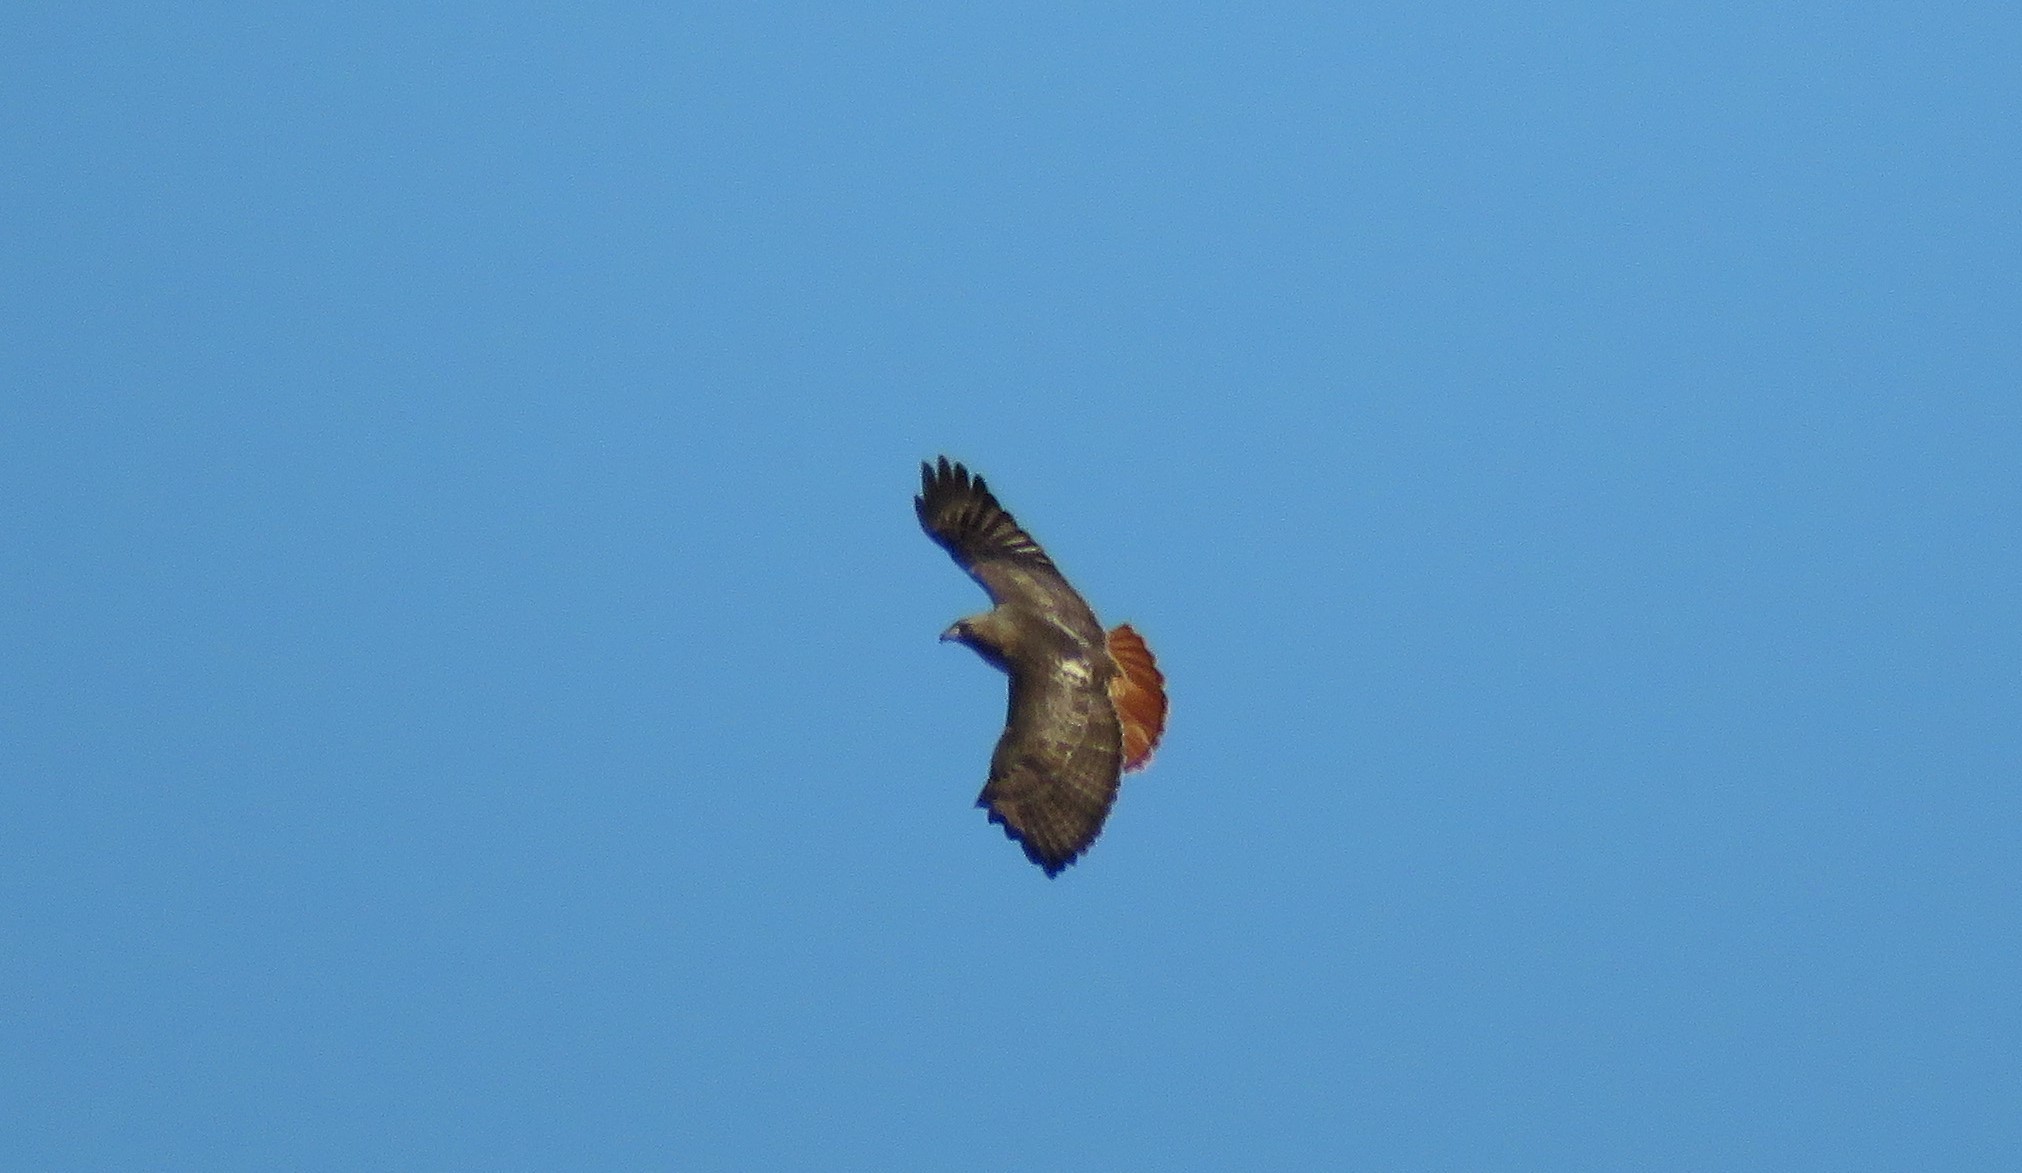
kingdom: Animalia
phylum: Chordata
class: Aves
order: Accipitriformes
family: Accipitridae
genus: Buteo
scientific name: Buteo jamaicensis
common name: Red-tailed hawk
